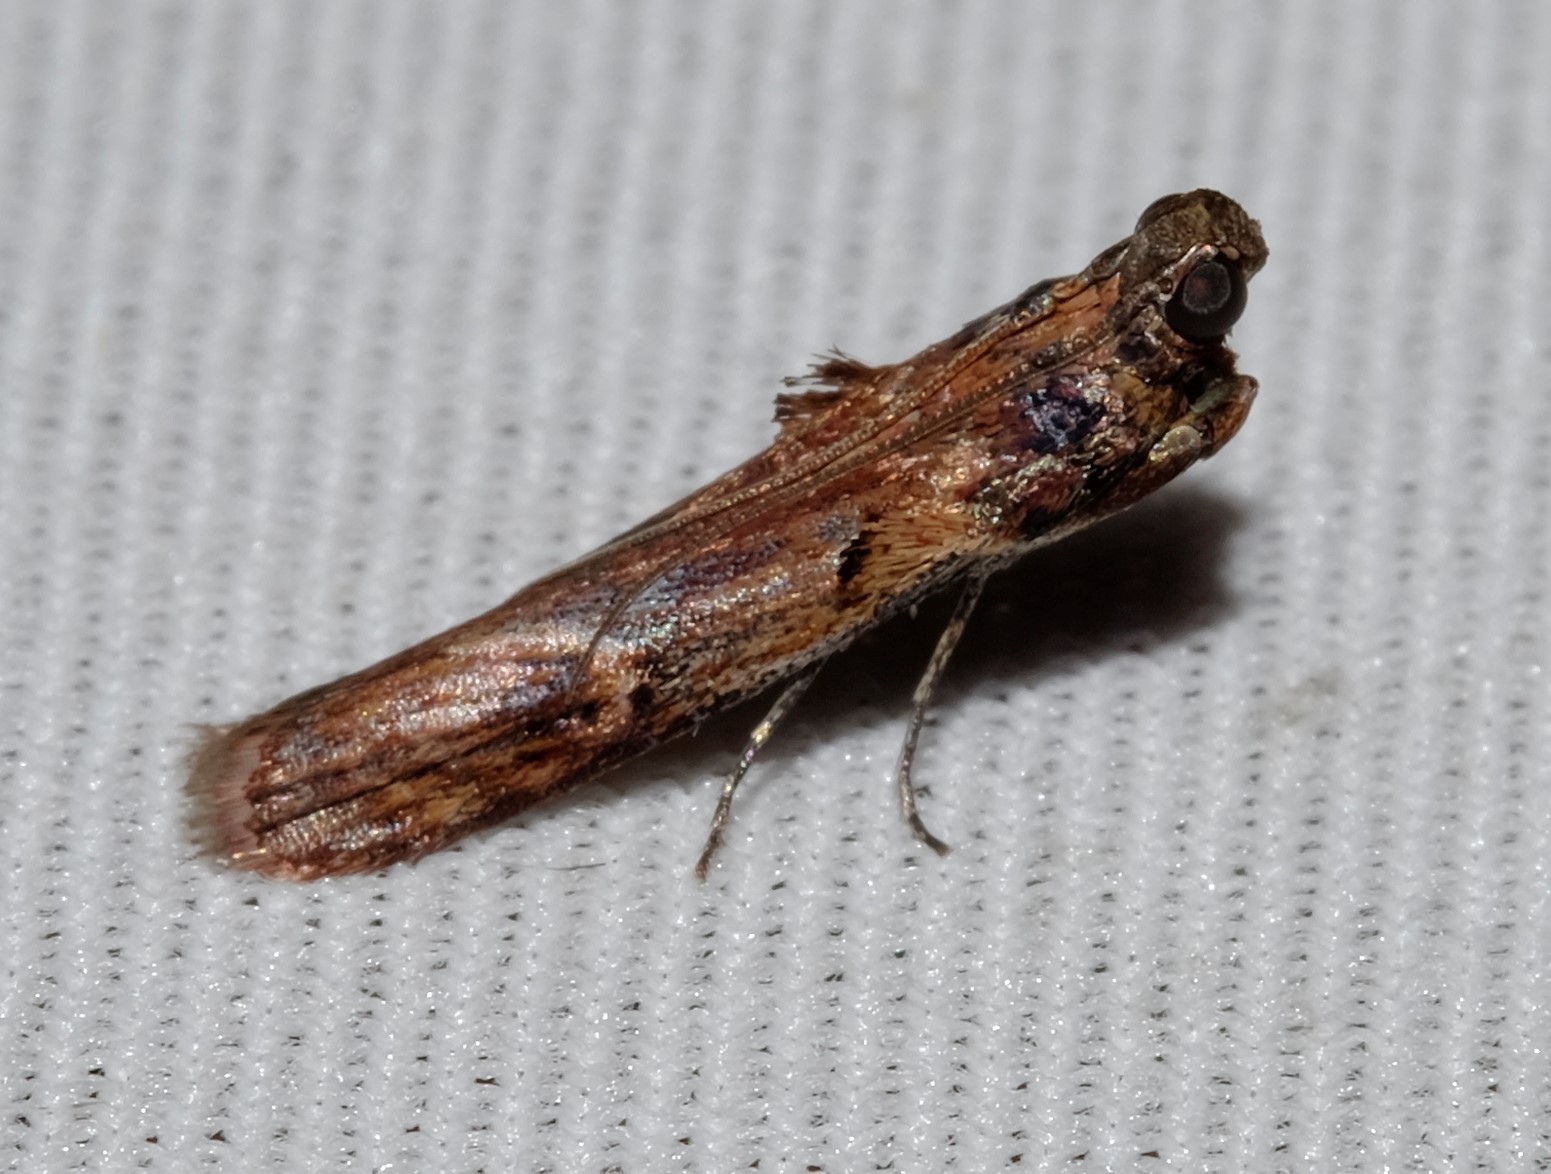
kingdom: Animalia
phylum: Arthropoda
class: Insecta
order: Lepidoptera
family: Pyralidae
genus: Balanomis
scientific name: Balanomis encyclia
